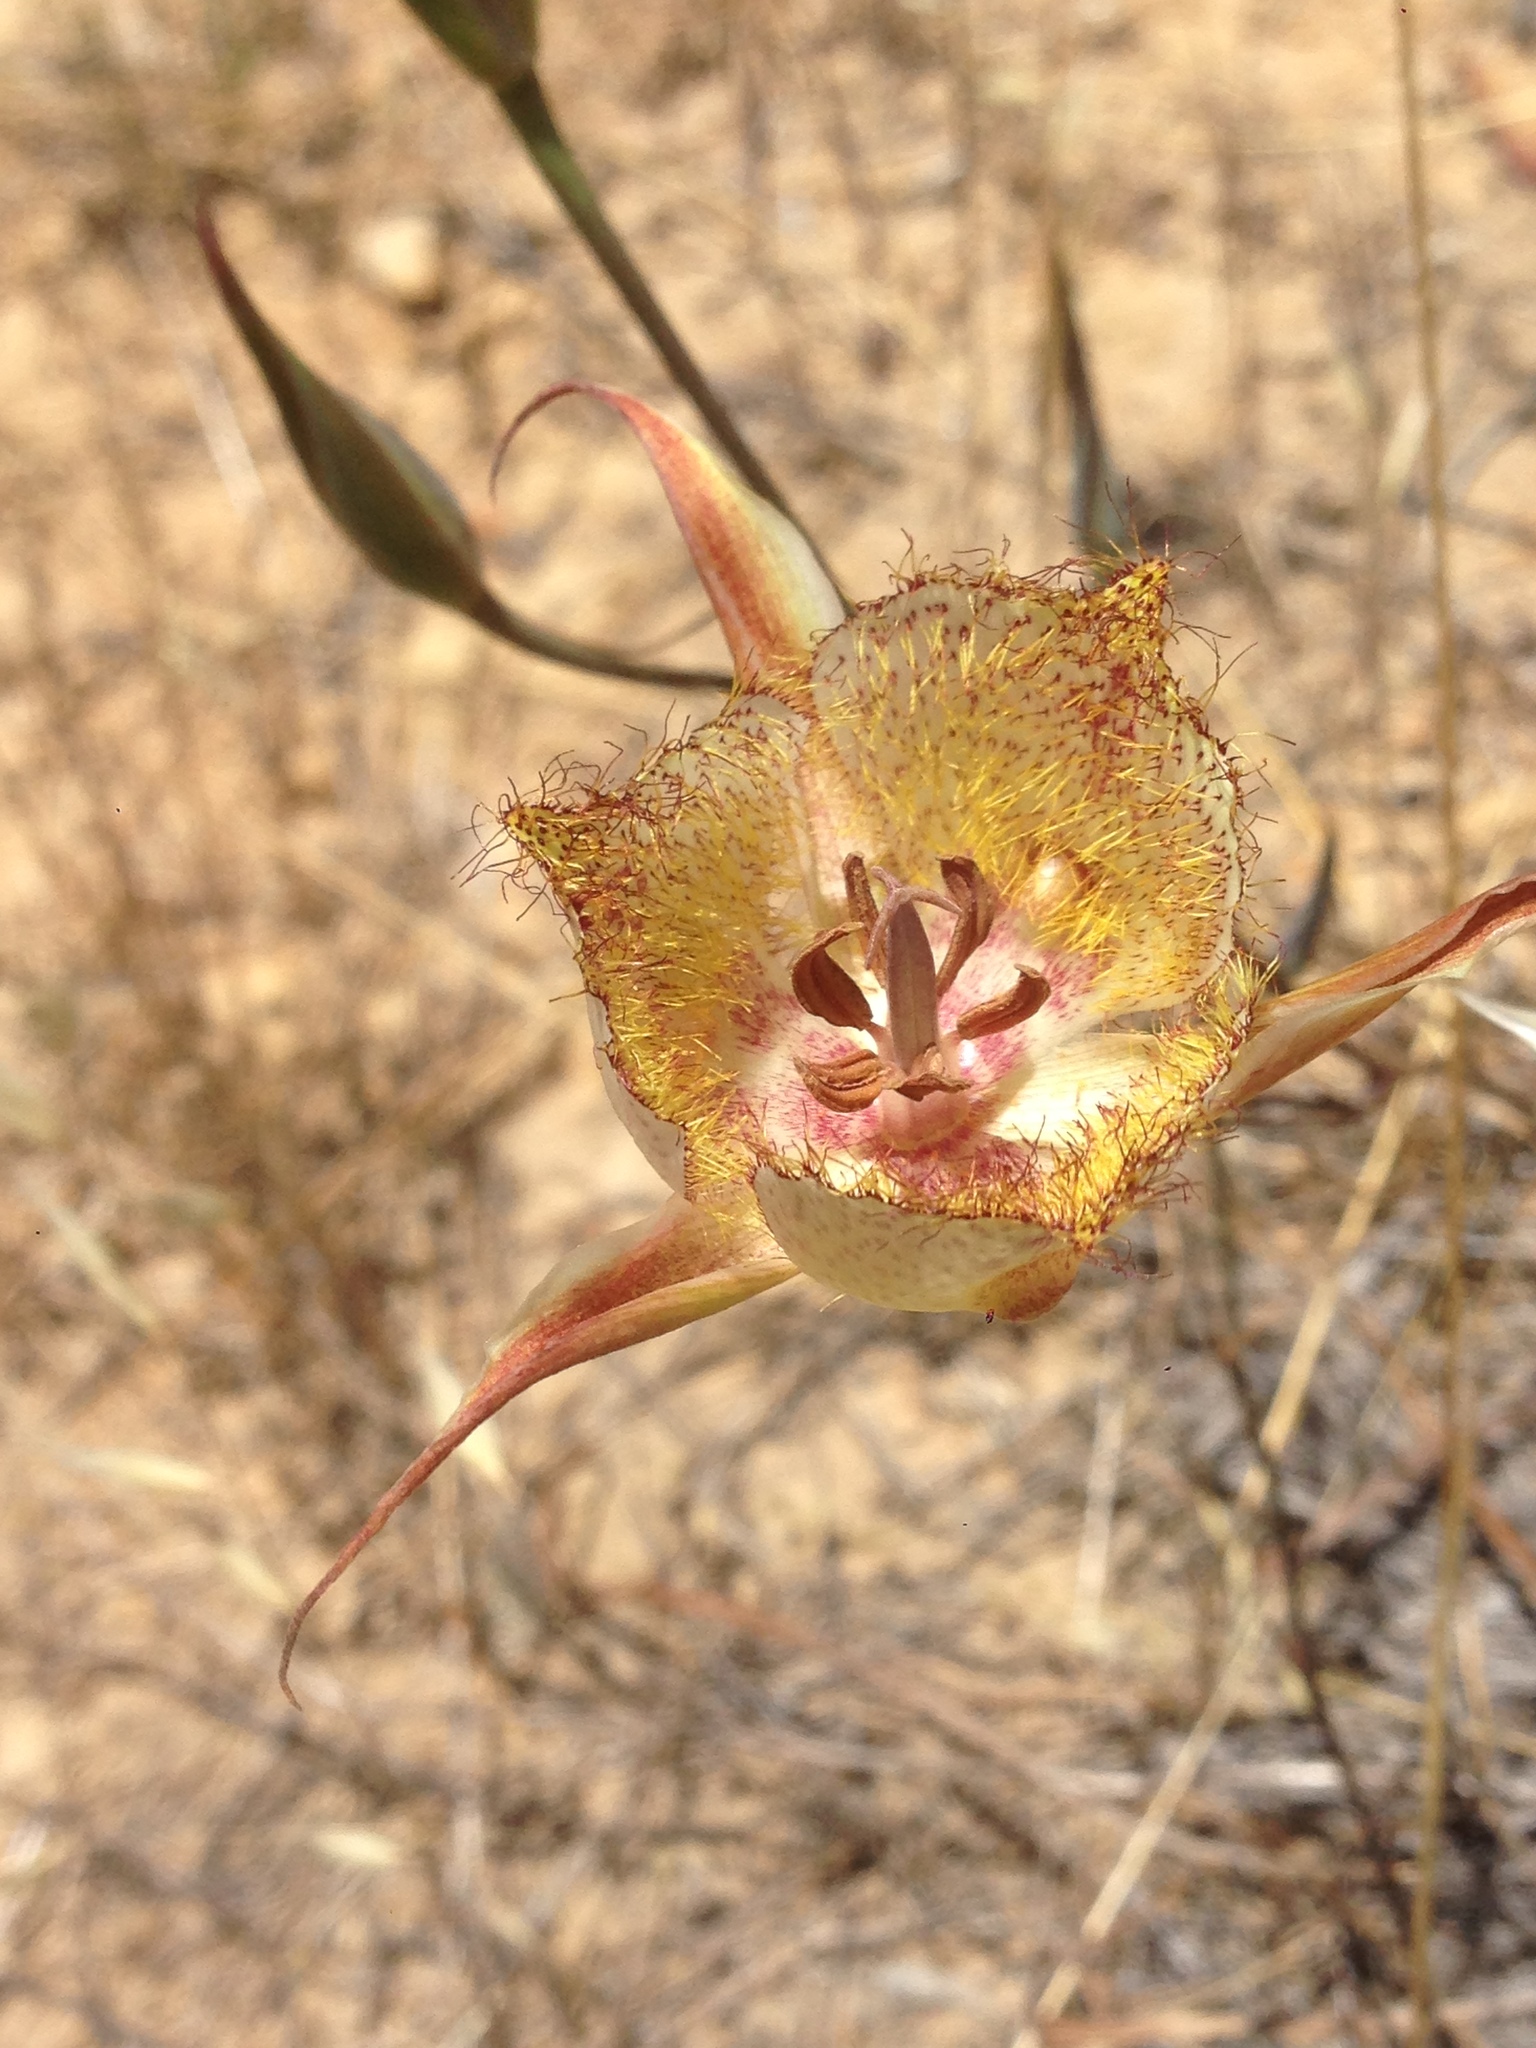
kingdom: Plantae
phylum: Tracheophyta
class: Liliopsida
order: Liliales
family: Liliaceae
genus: Calochortus
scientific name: Calochortus fimbriatus
